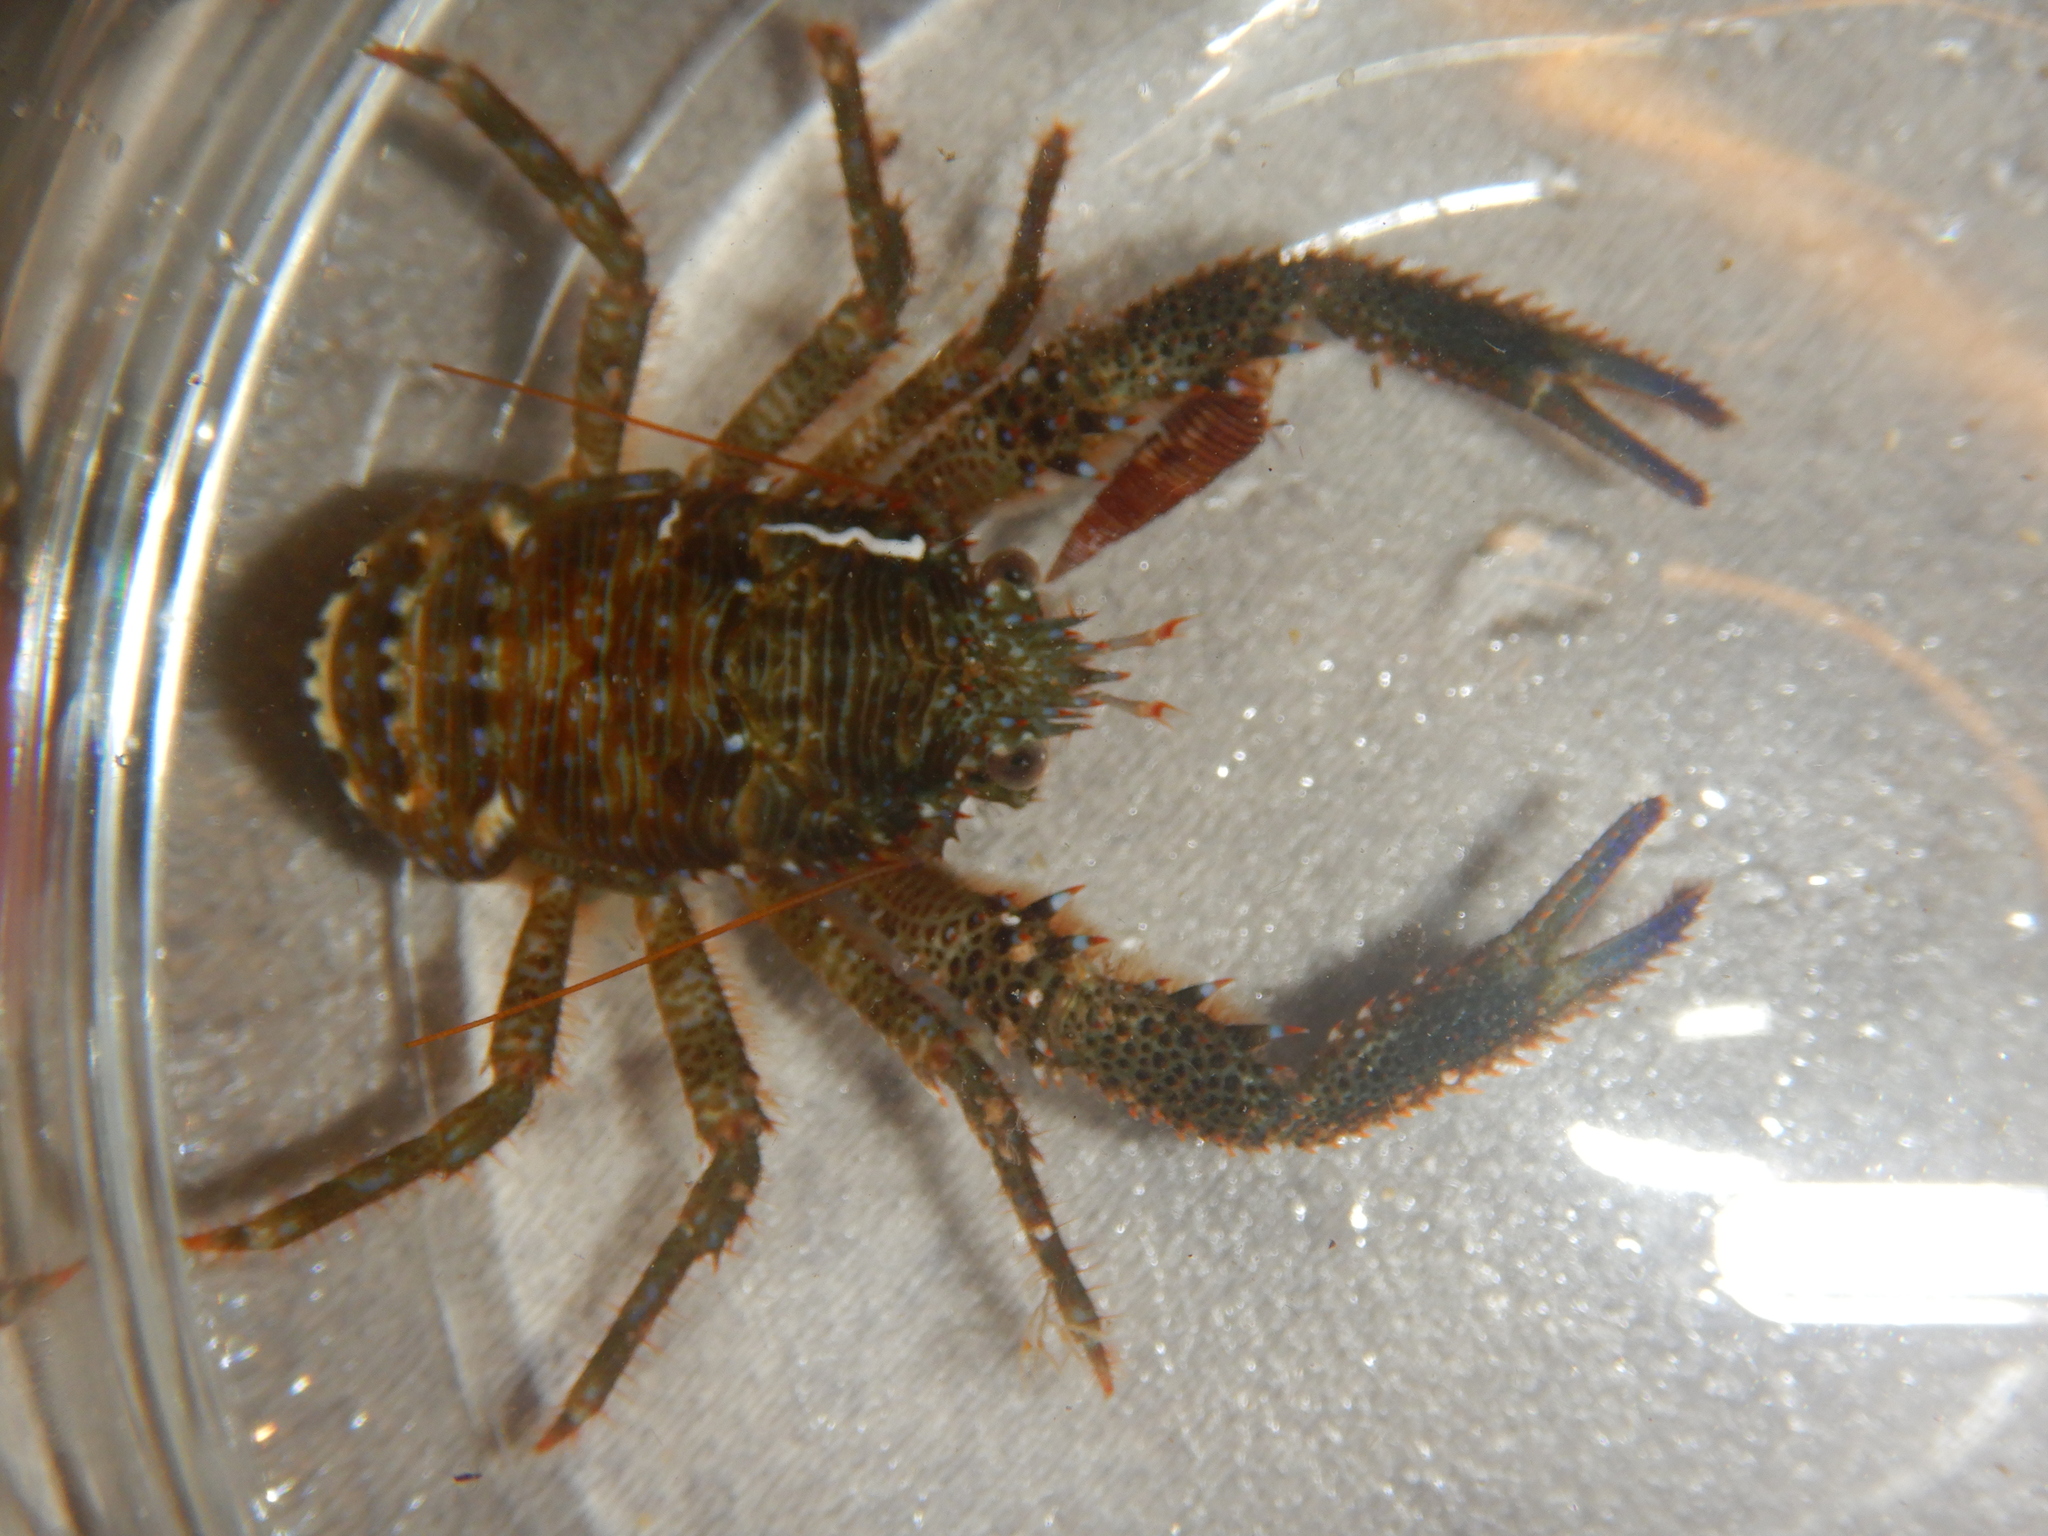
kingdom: Animalia
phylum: Arthropoda
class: Malacostraca
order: Decapoda
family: Galatheidae
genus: Galathea
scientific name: Galathea squamifera
